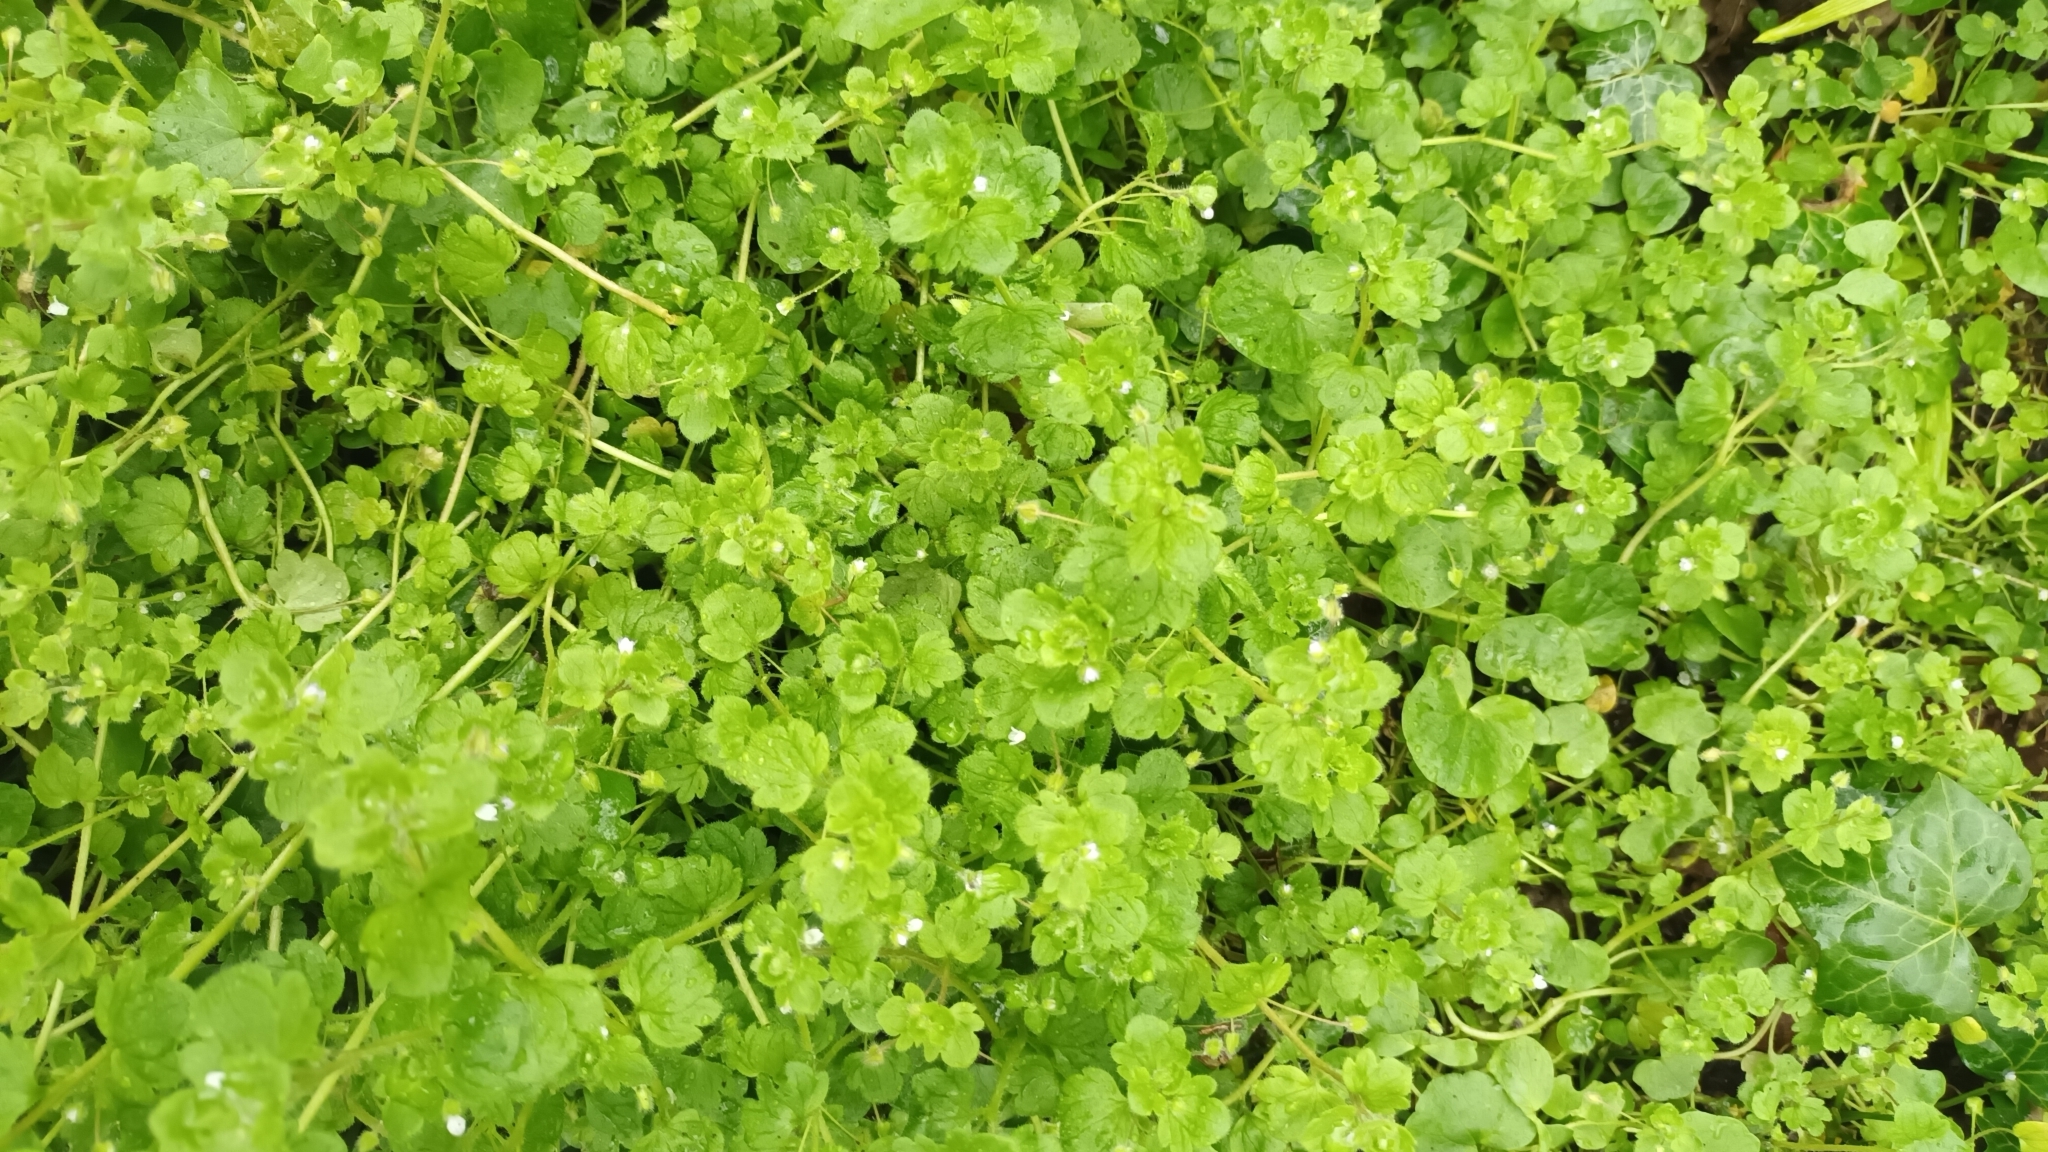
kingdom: Plantae
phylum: Tracheophyta
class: Magnoliopsida
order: Lamiales
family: Plantaginaceae
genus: Veronica
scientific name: Veronica sublobata
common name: False ivy-leaved speedwell
